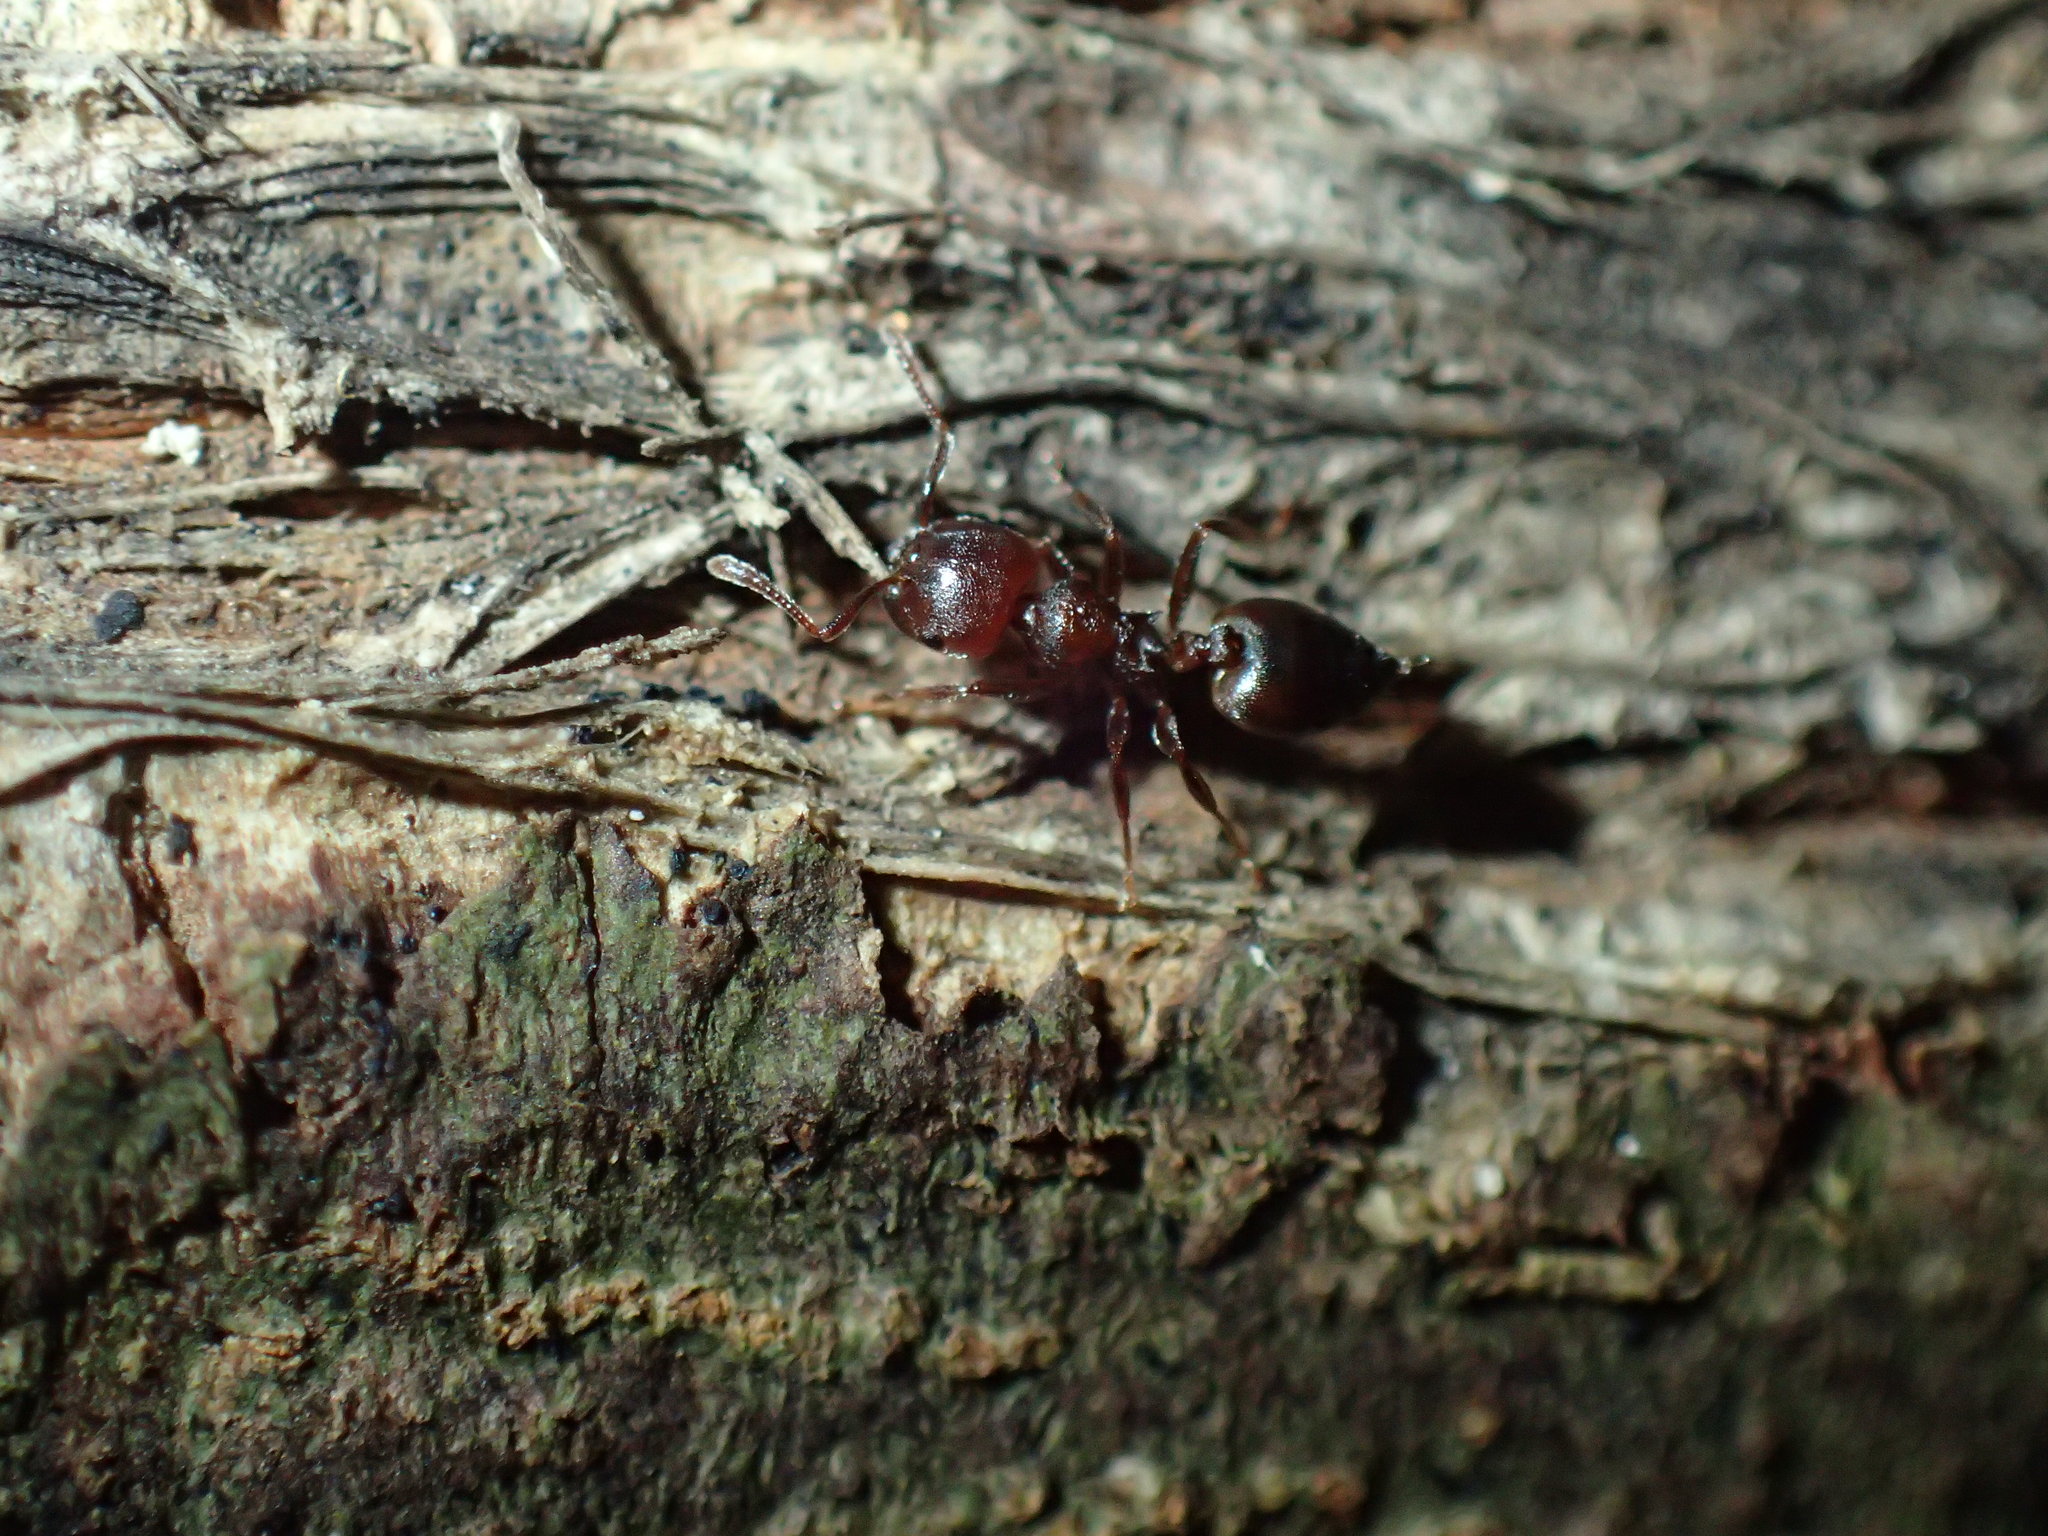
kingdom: Animalia
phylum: Arthropoda
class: Insecta
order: Hymenoptera
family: Formicidae
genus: Crematogaster
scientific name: Crematogaster delagoensis
